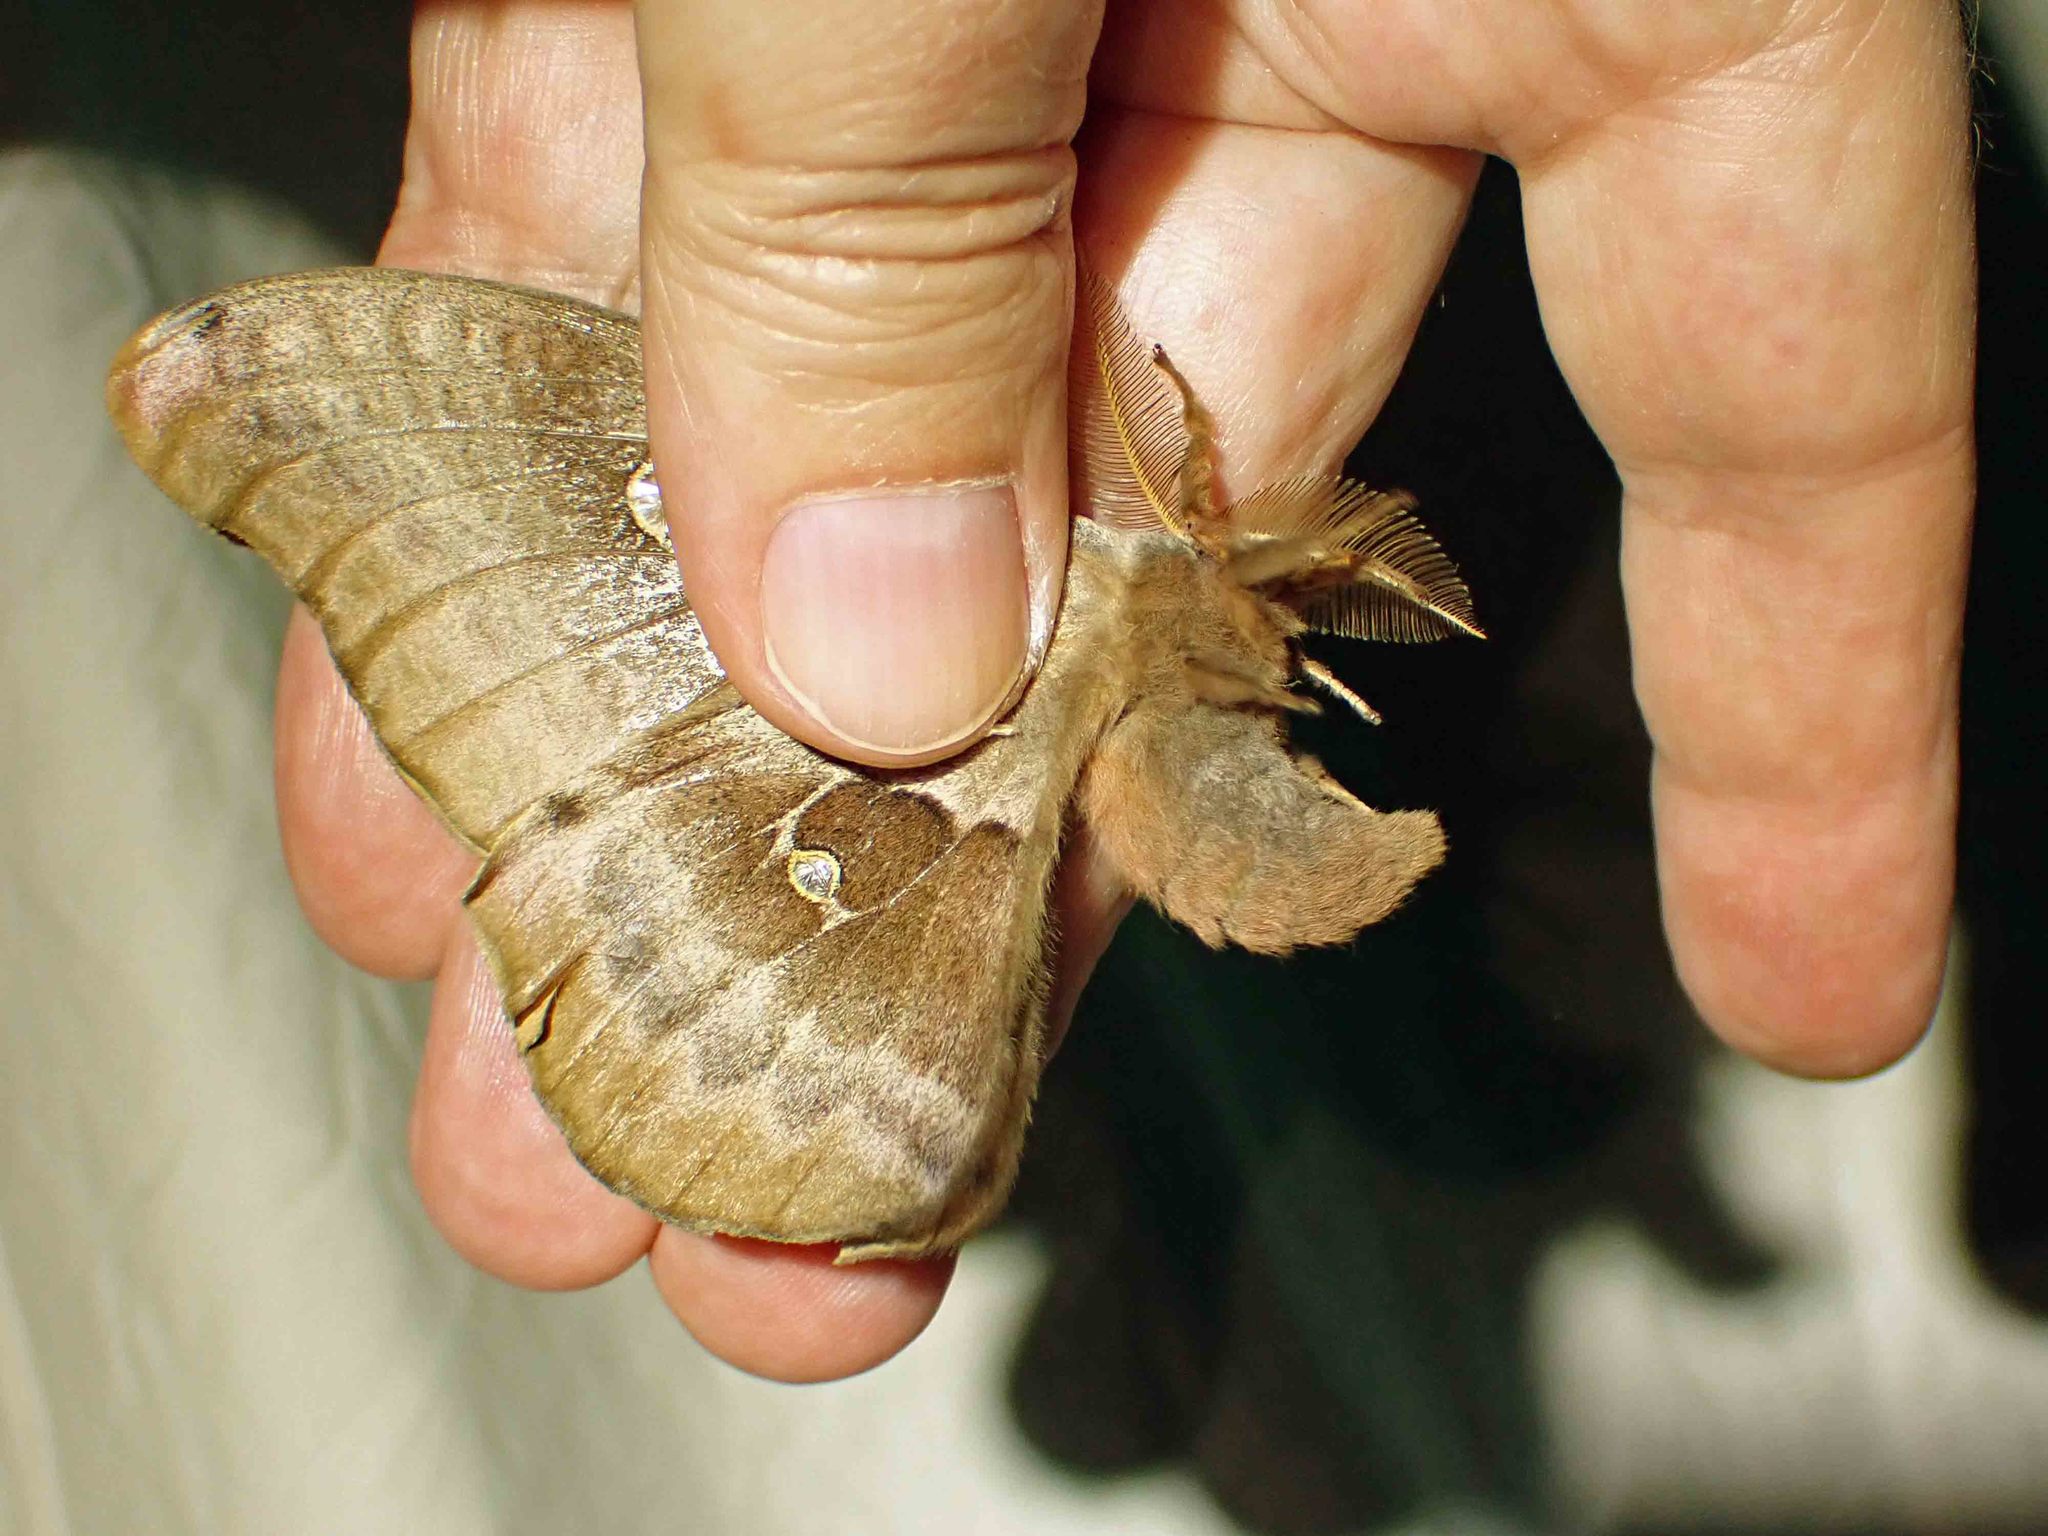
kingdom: Animalia
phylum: Arthropoda
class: Insecta
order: Lepidoptera
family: Saturniidae
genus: Antheraea
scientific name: Antheraea polyphemus
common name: Polyphemus moth
